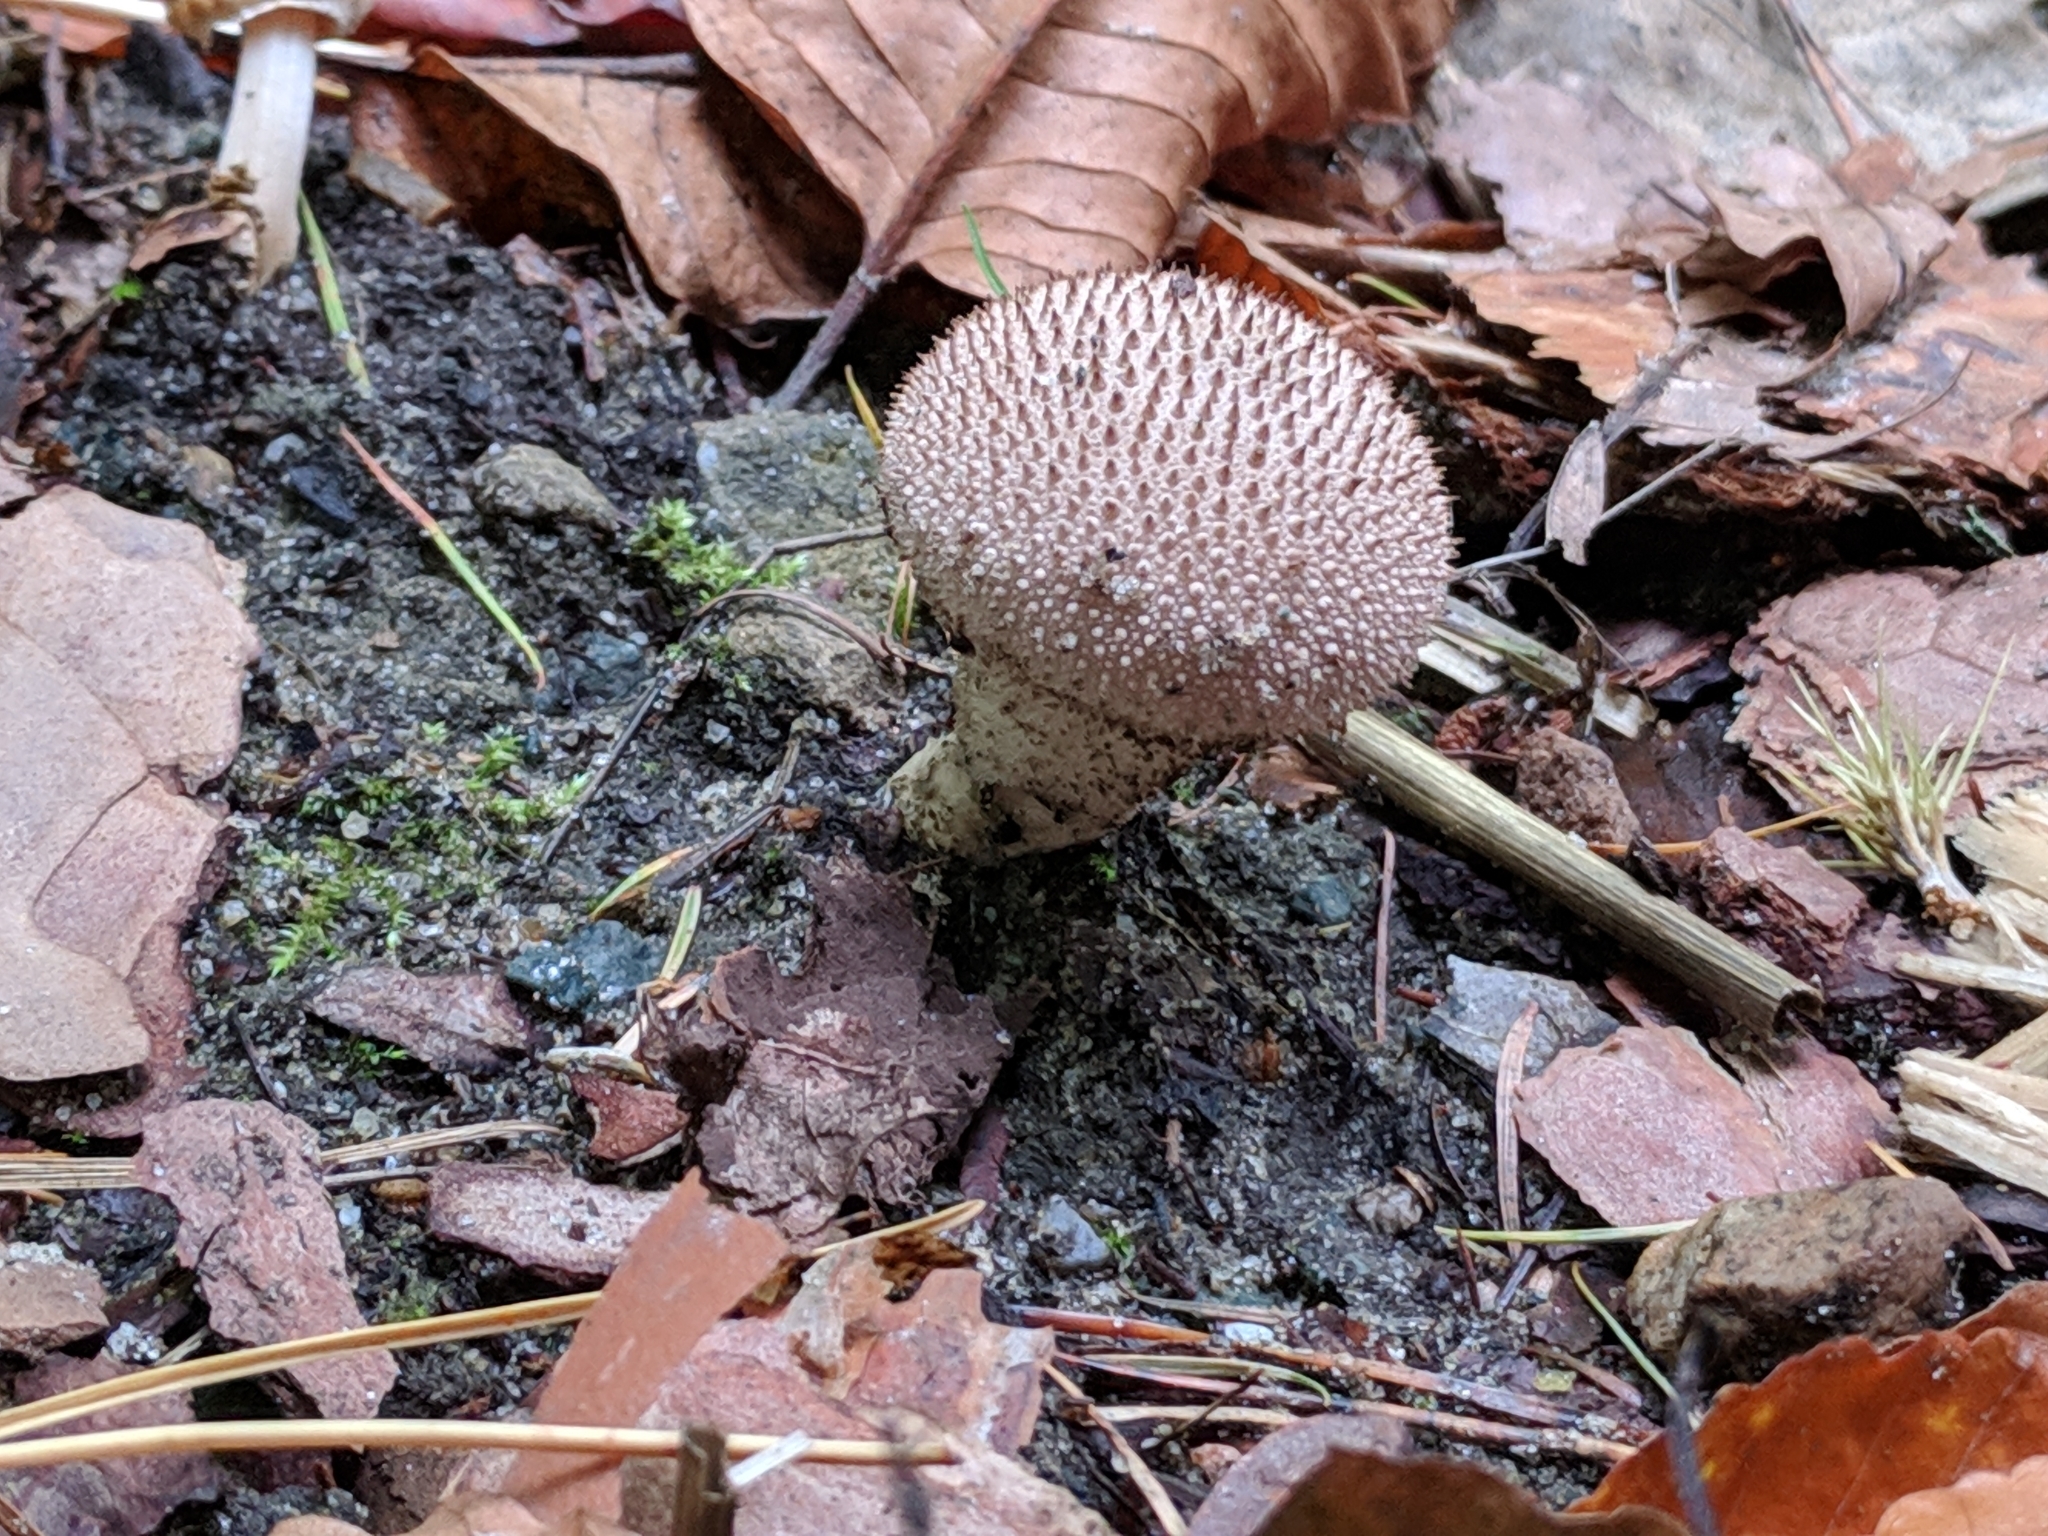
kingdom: Fungi
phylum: Basidiomycota
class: Agaricomycetes
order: Agaricales
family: Lycoperdaceae
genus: Lycoperdon
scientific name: Lycoperdon perlatum
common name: Common puffball
